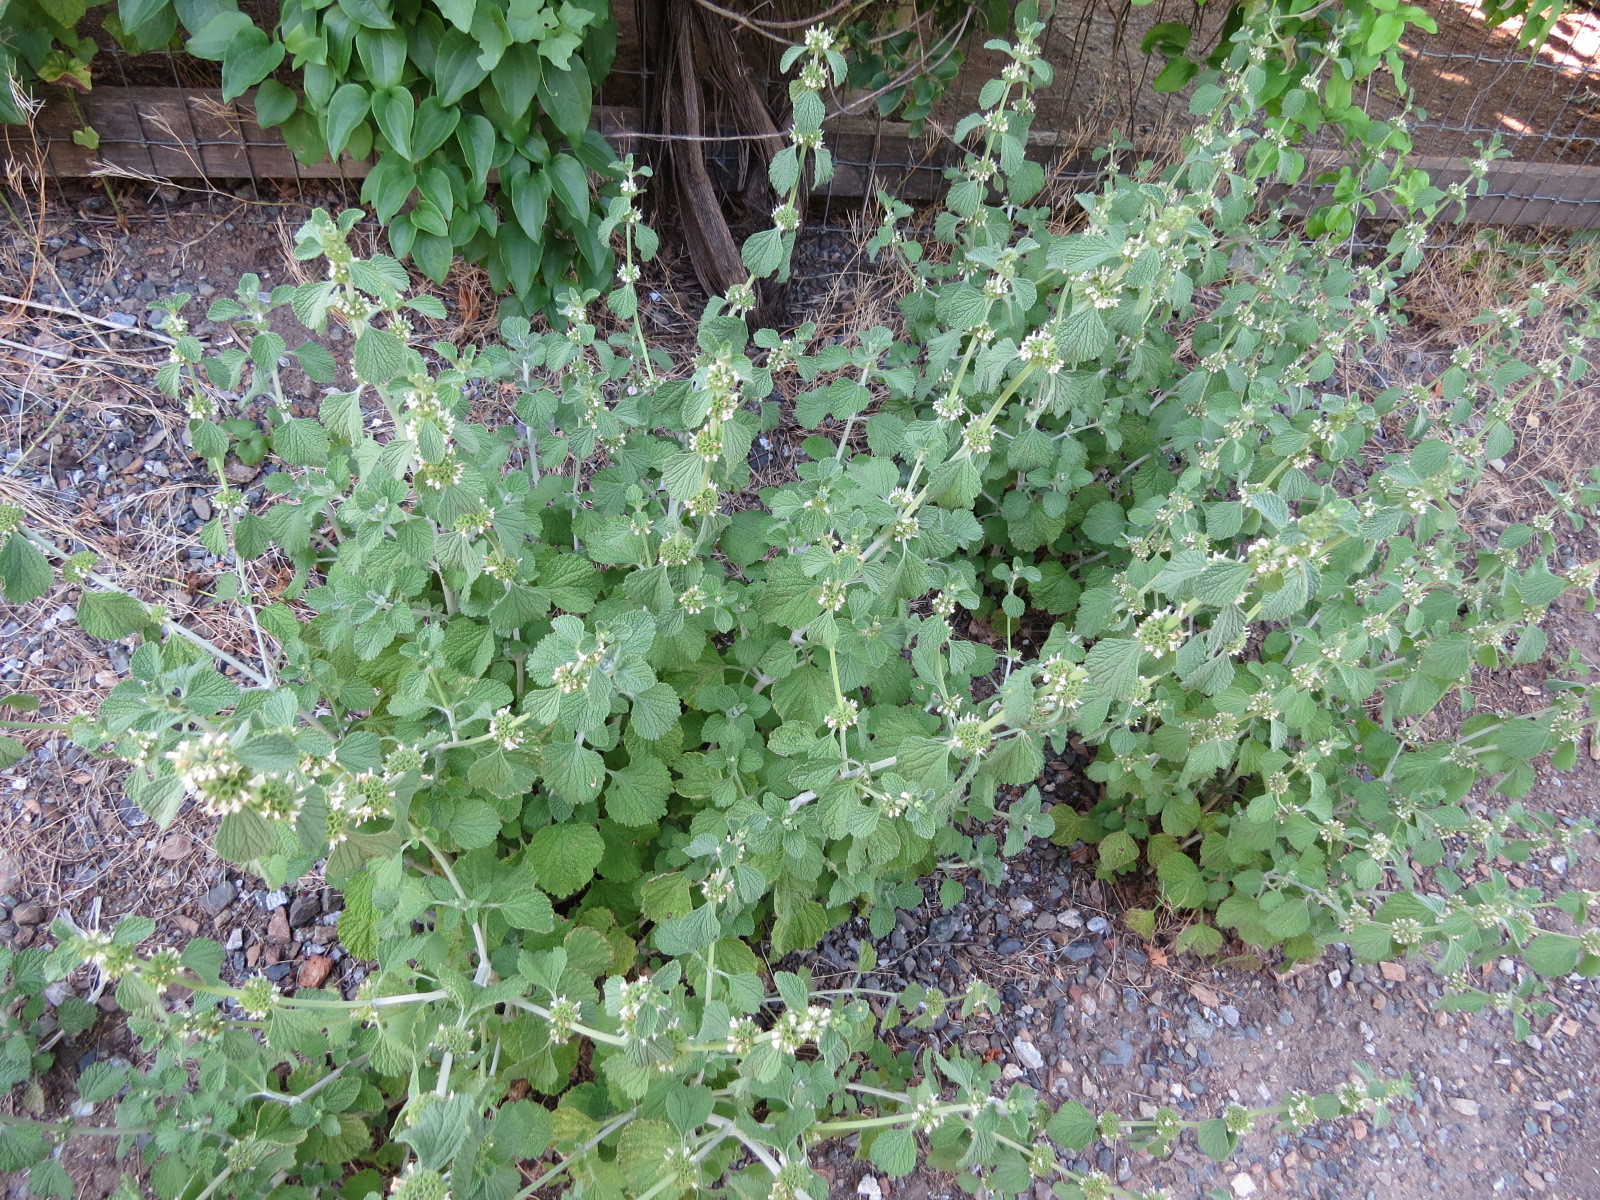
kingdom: Plantae
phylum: Tracheophyta
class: Magnoliopsida
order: Lamiales
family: Lamiaceae
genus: Marrubium
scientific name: Marrubium vulgare
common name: Horehound
